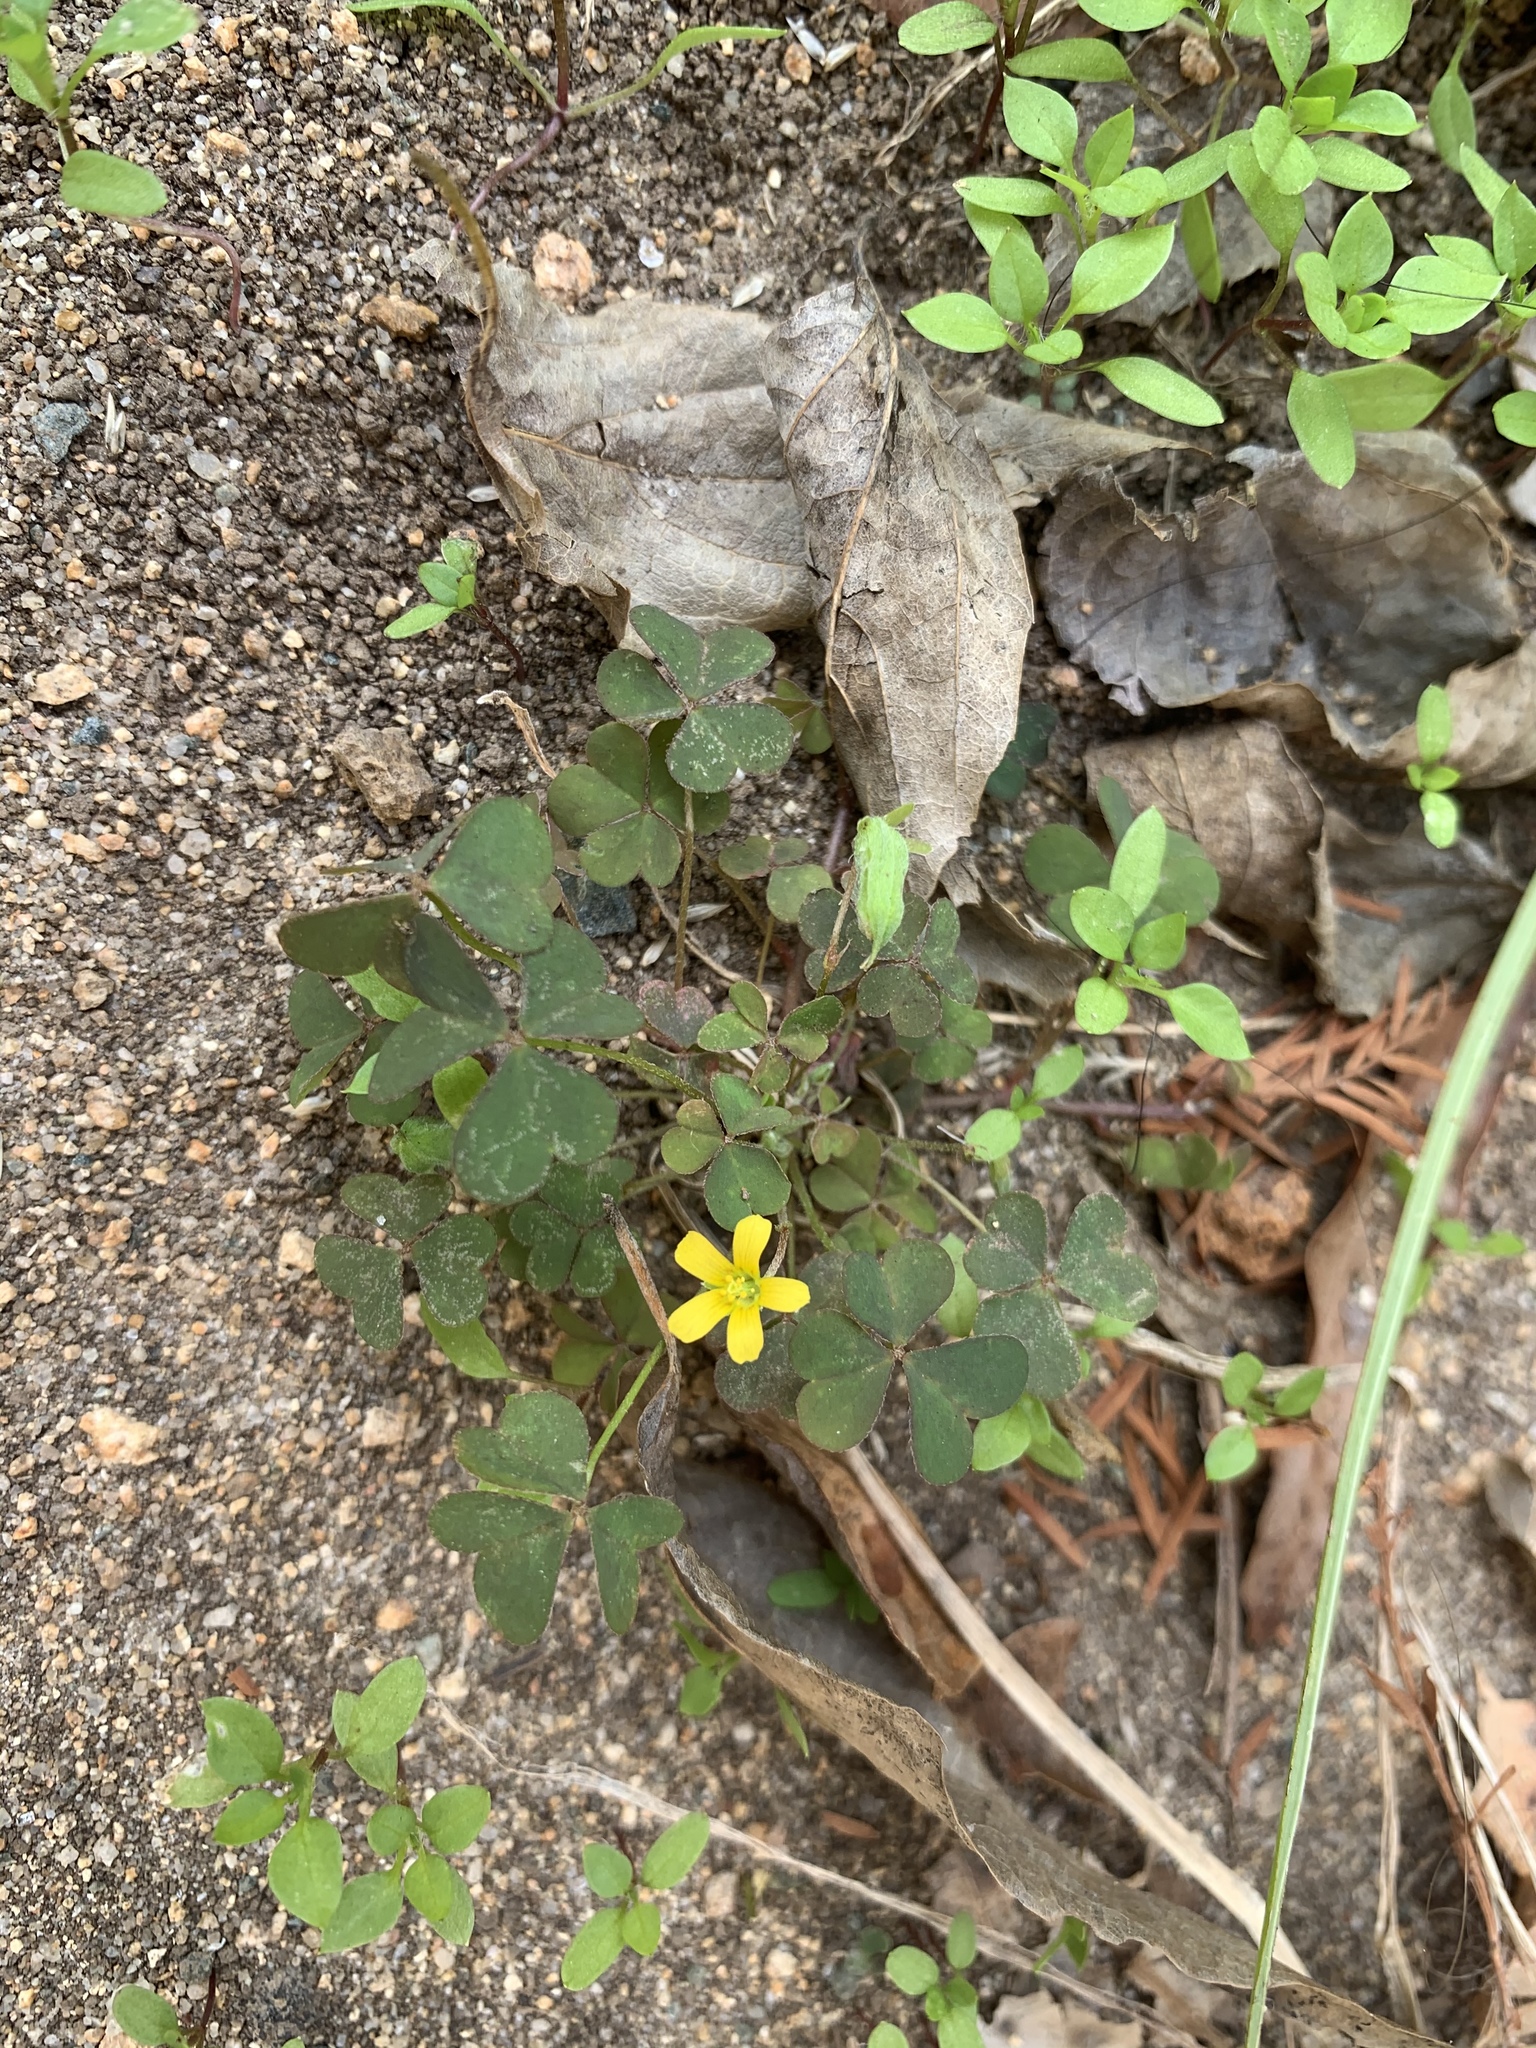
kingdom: Plantae
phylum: Tracheophyta
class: Magnoliopsida
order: Oxalidales
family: Oxalidaceae
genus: Oxalis
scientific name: Oxalis corniculata
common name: Procumbent yellow-sorrel
